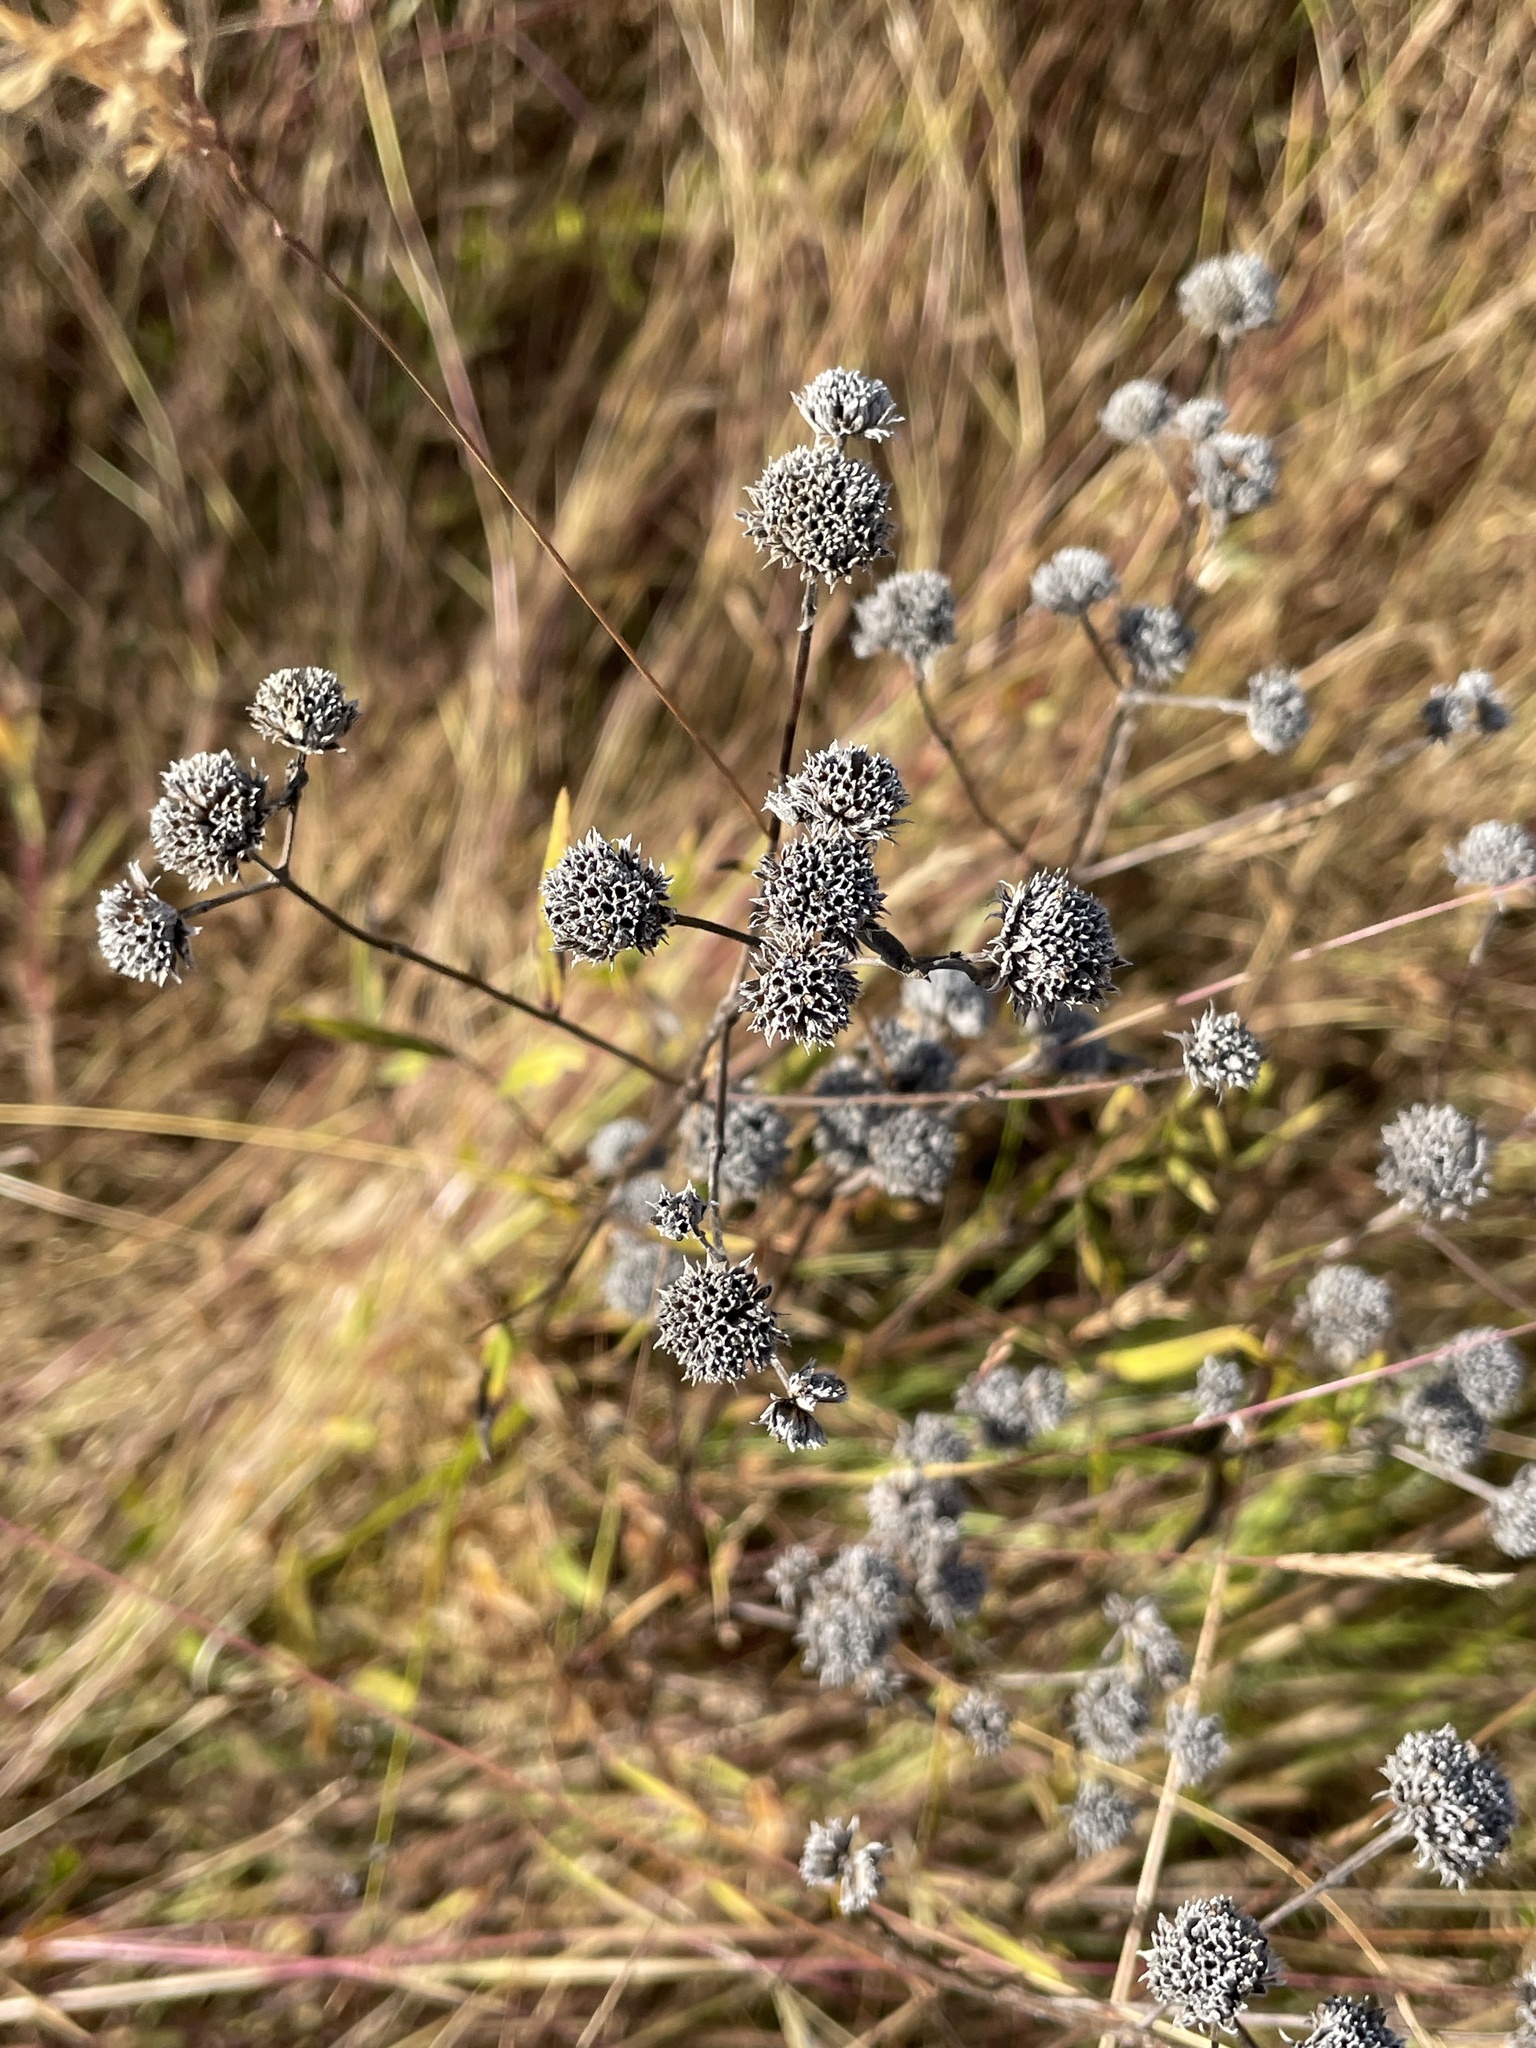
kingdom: Plantae
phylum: Tracheophyta
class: Magnoliopsida
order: Lamiales
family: Lamiaceae
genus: Pycnanthemum
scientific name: Pycnanthemum virginianum
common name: Virginia mountain-mint
